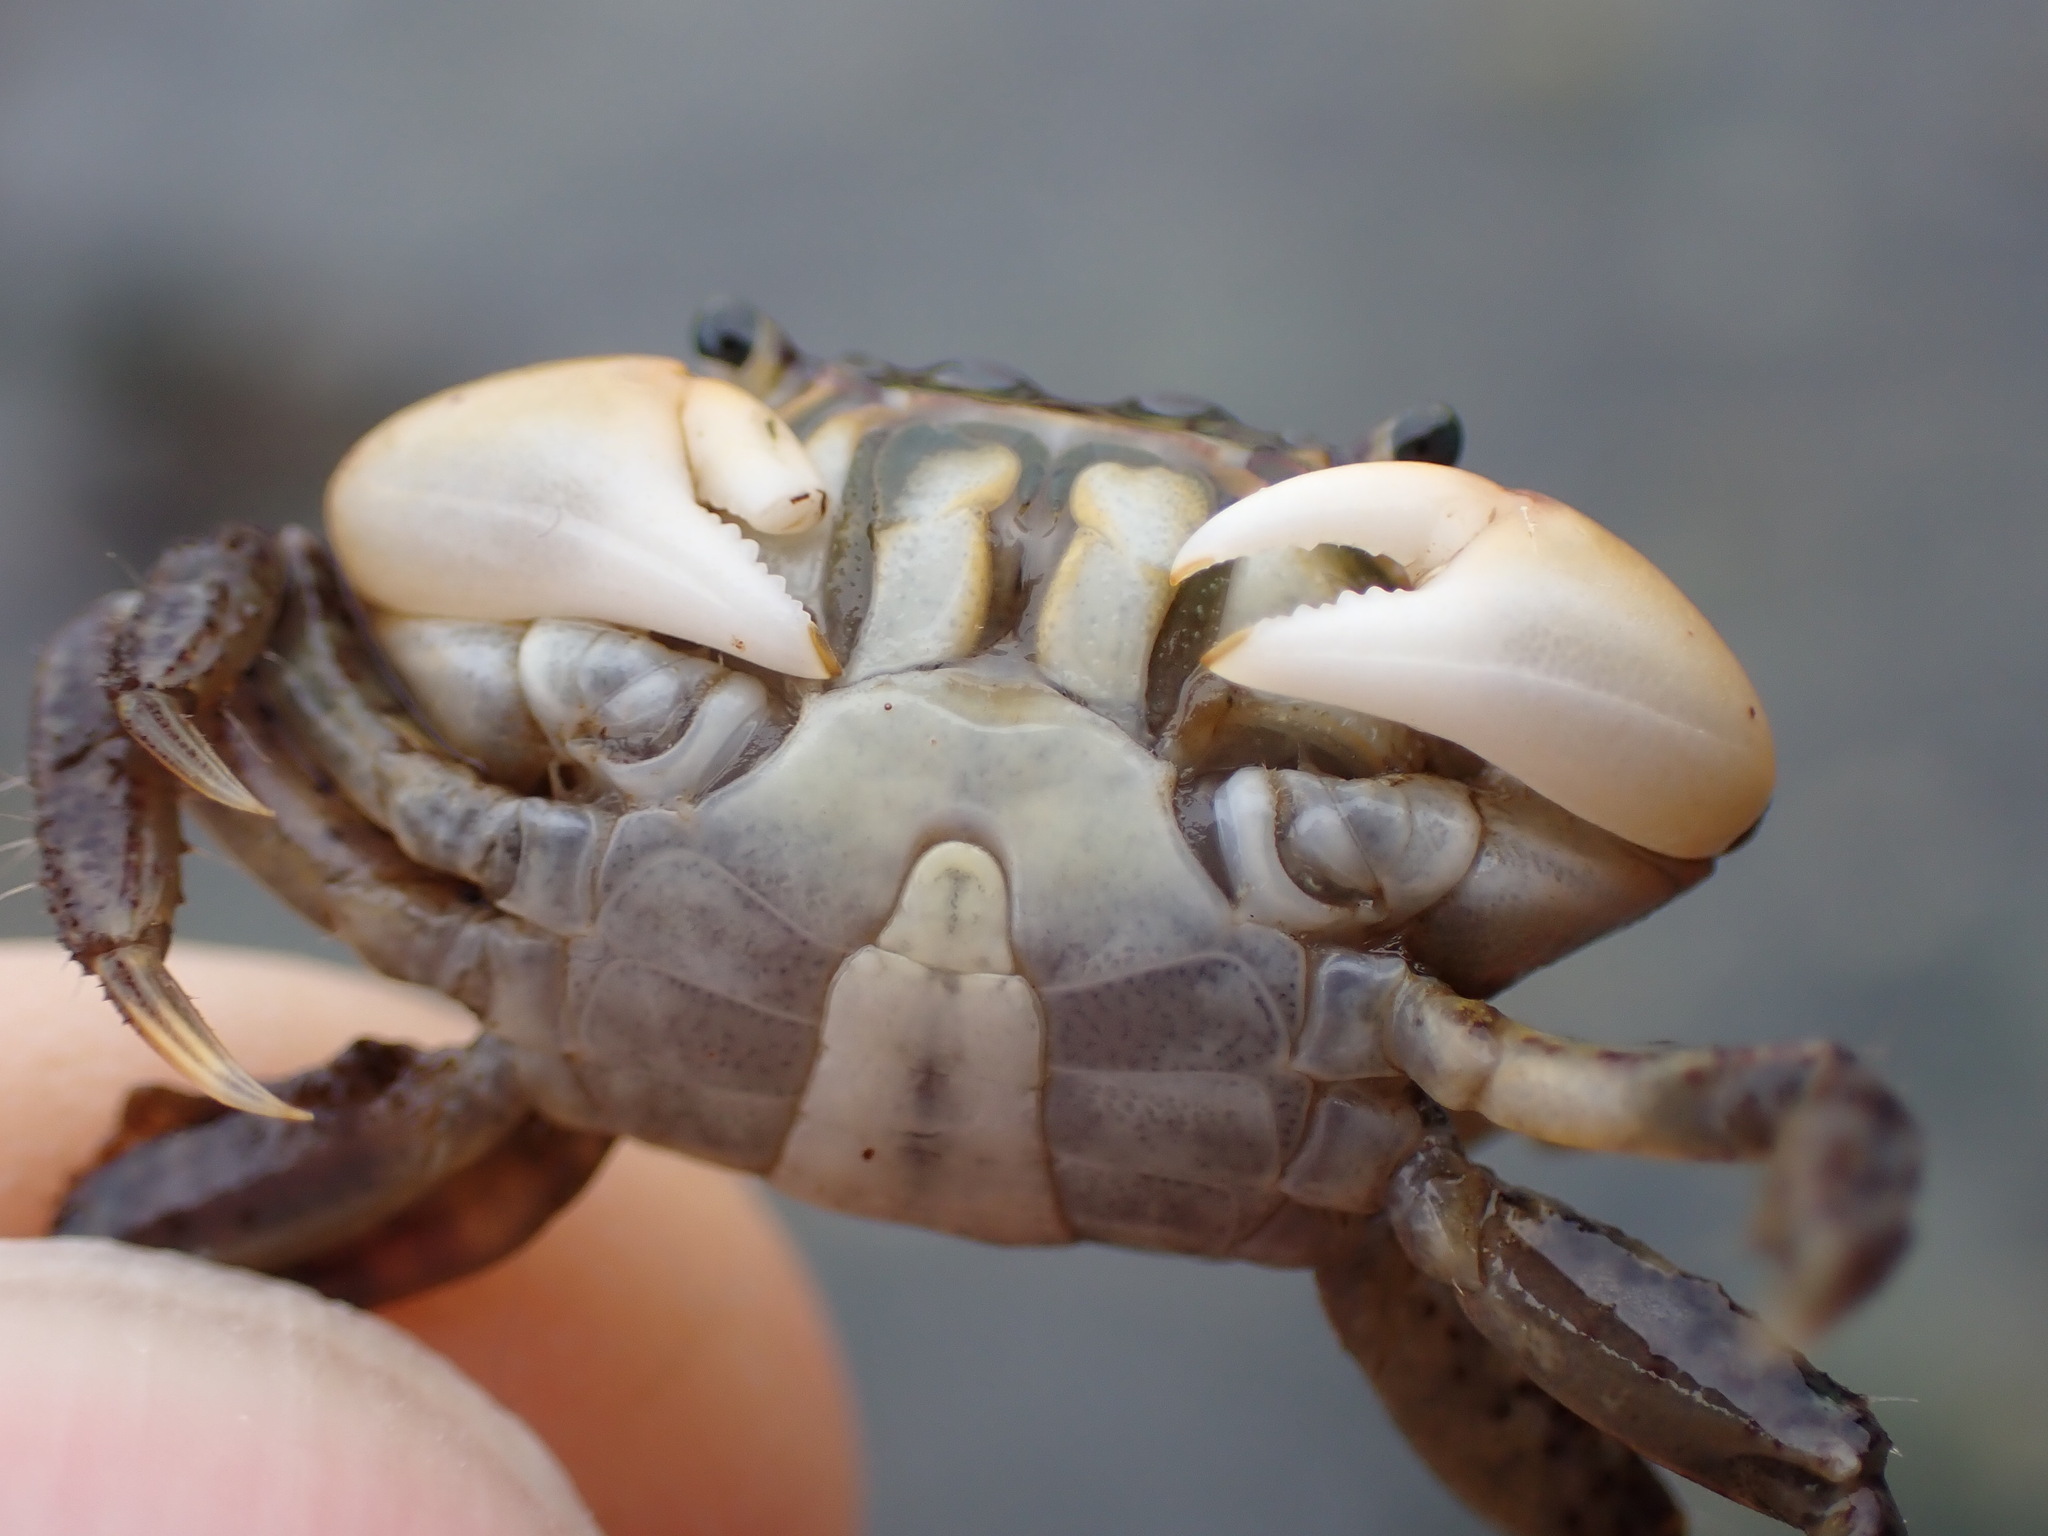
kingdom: Animalia
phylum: Arthropoda
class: Malacostraca
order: Decapoda
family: Varunidae
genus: Hemigrapsus
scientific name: Hemigrapsus oregonensis
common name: Yellow shore crab
